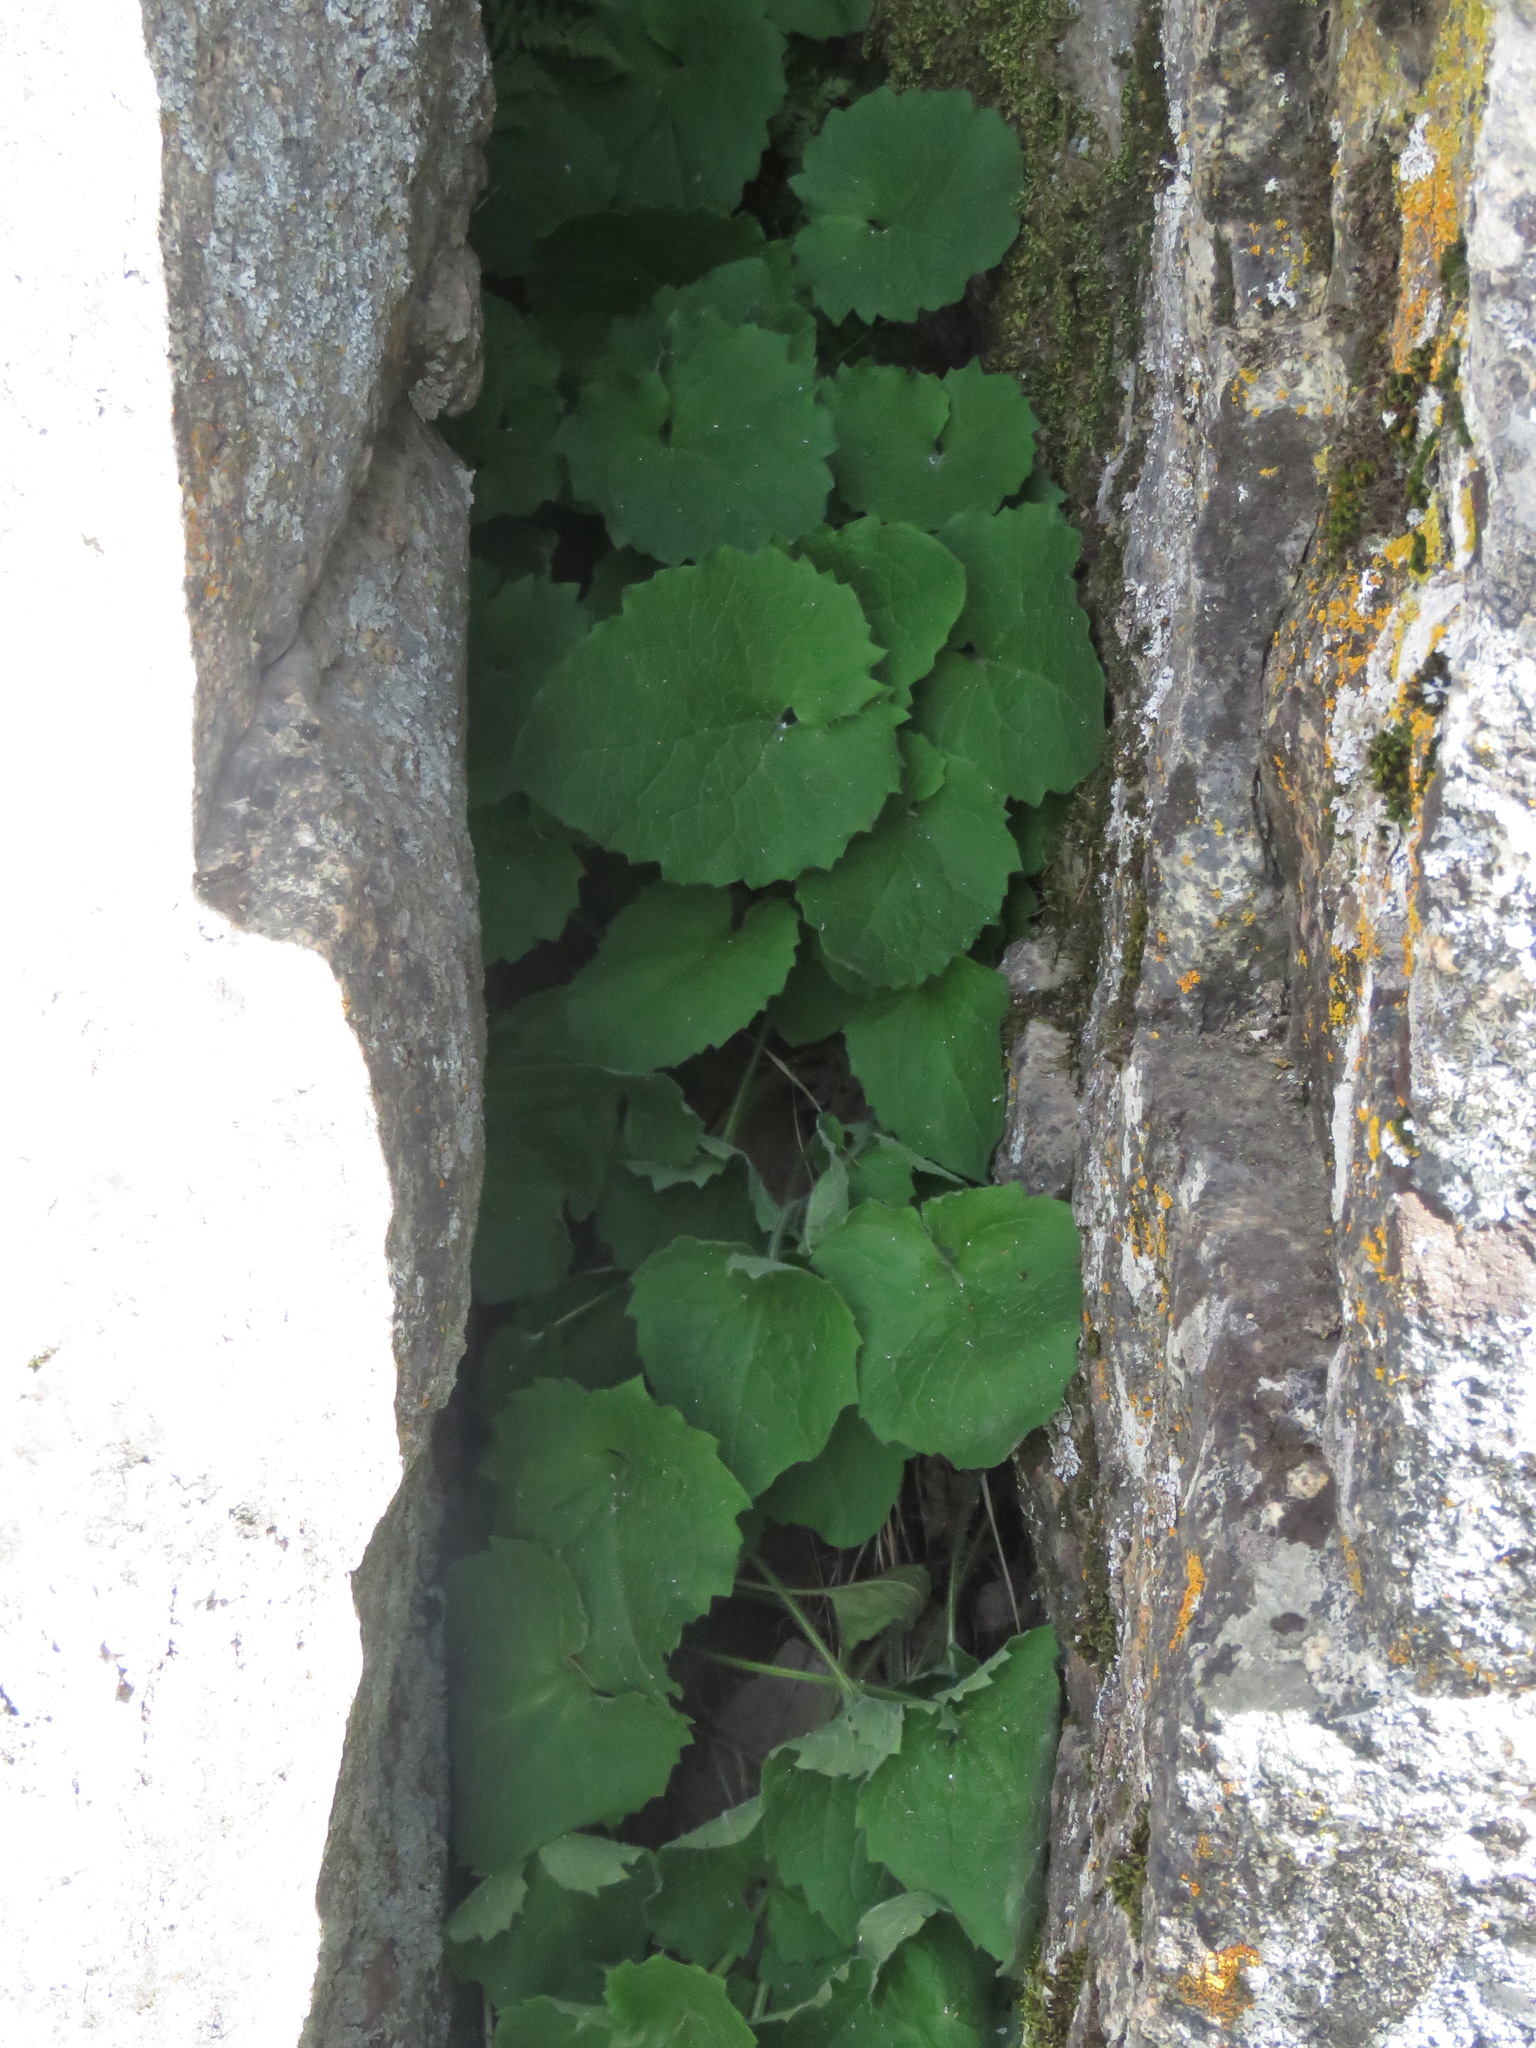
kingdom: Plantae
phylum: Tracheophyta
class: Magnoliopsida
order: Asterales
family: Asteraceae
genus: Arnica
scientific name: Arnica cordifolia
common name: Heart-leaf arnica
